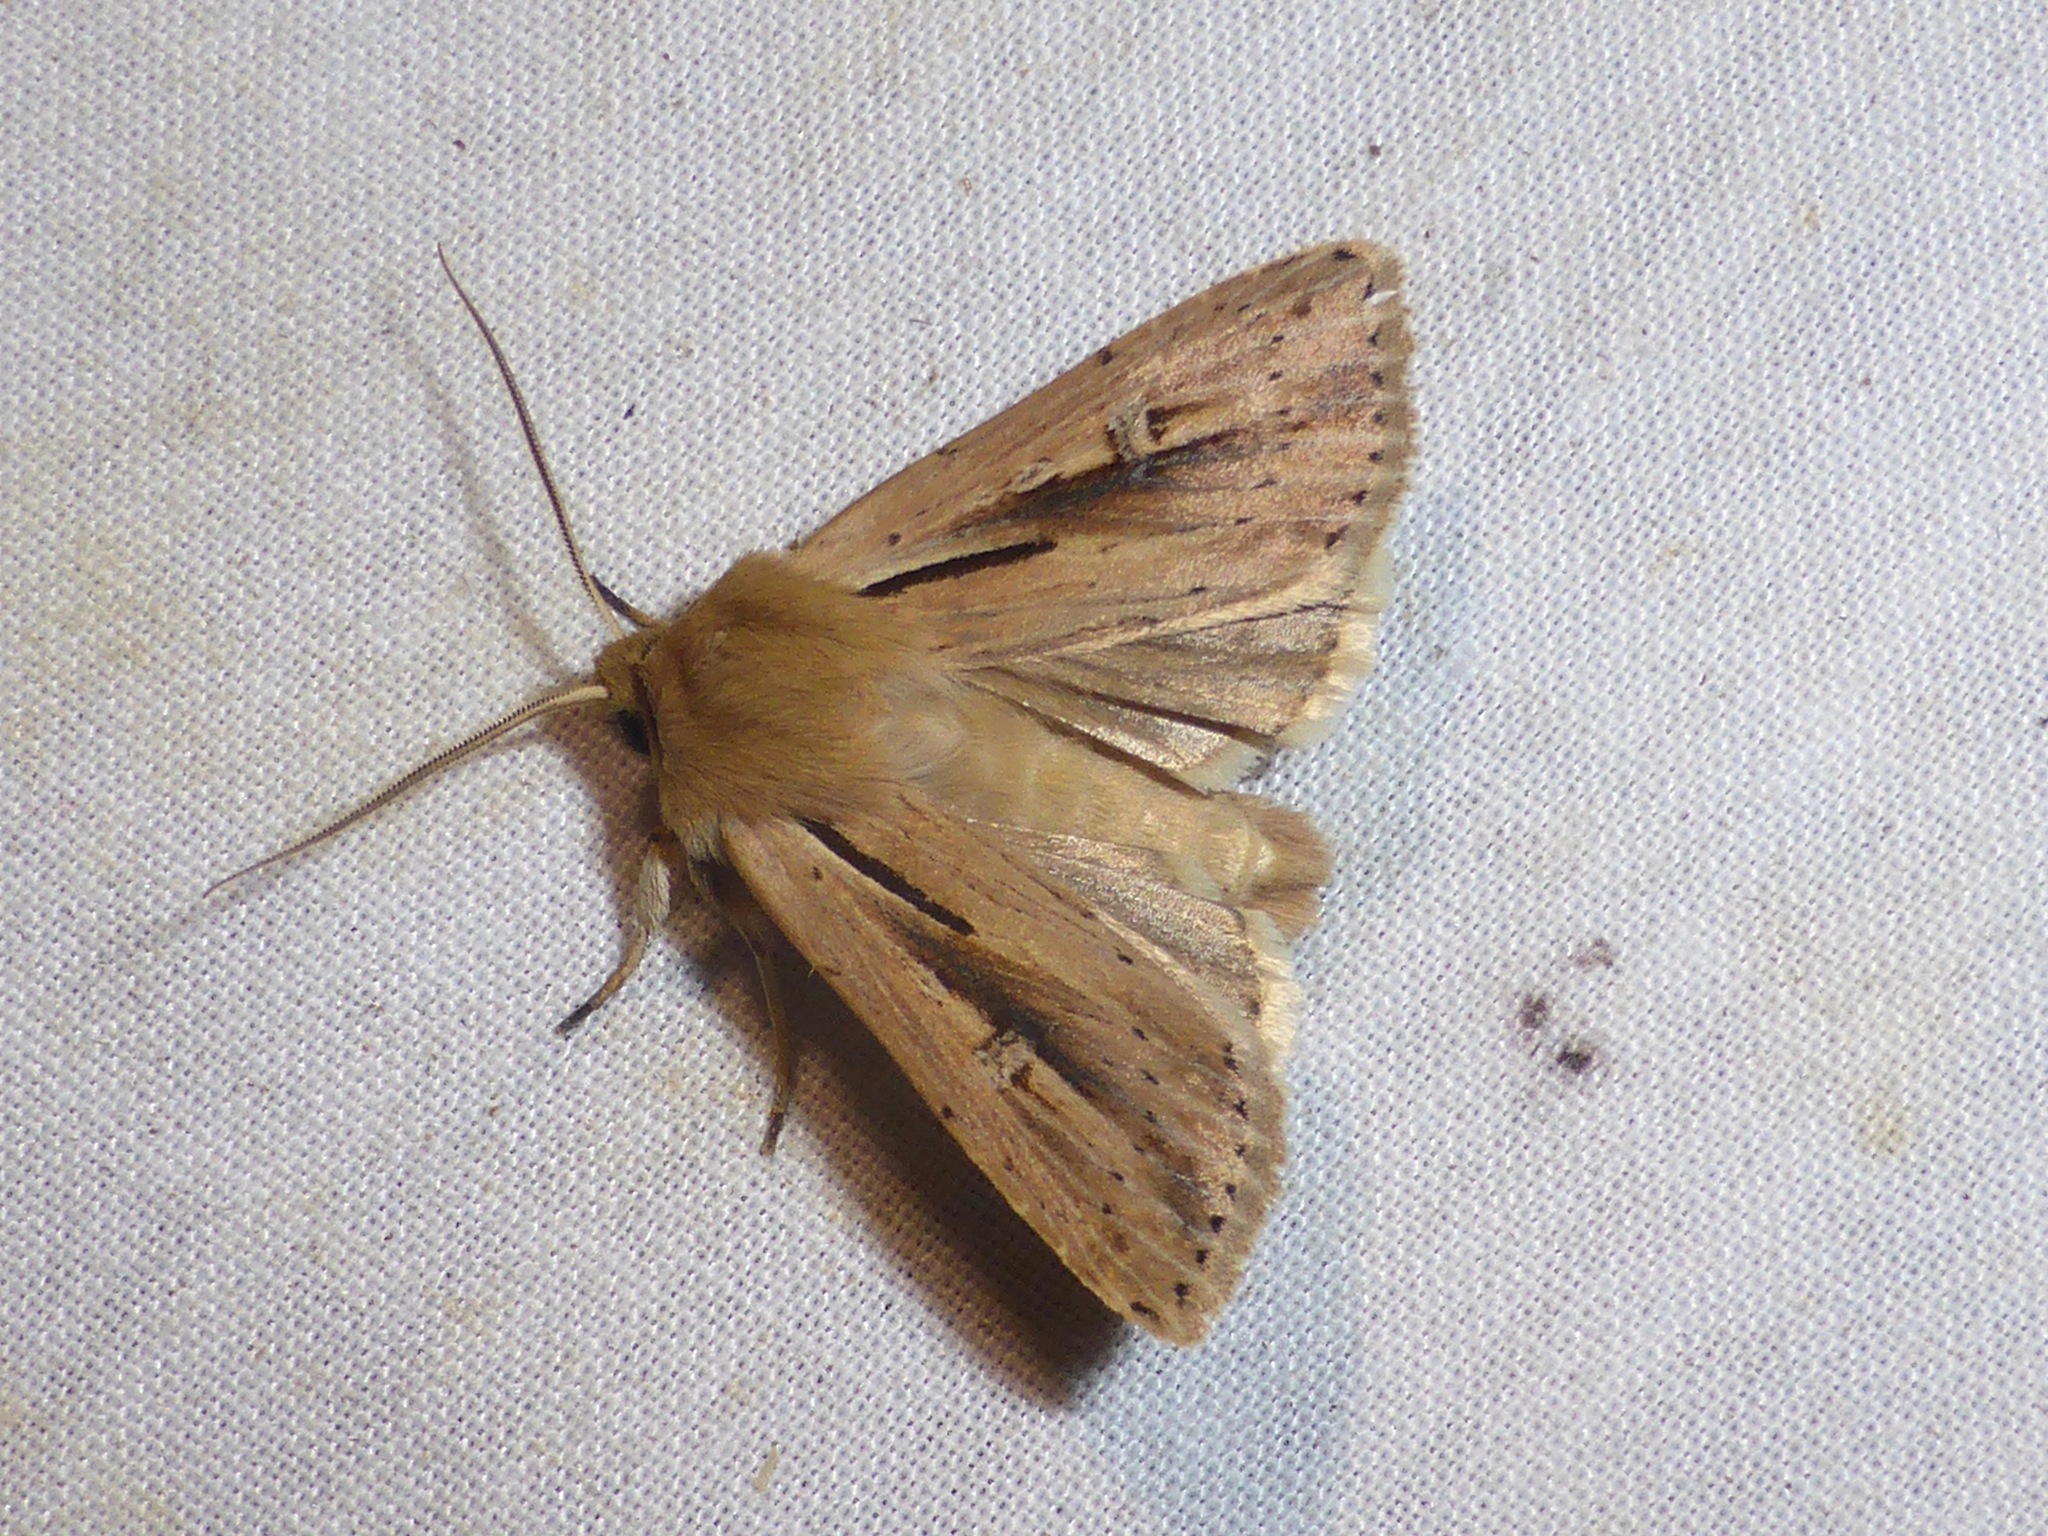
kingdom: Animalia
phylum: Arthropoda
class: Insecta
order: Lepidoptera
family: Noctuidae
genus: Ichneutica
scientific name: Ichneutica propria
